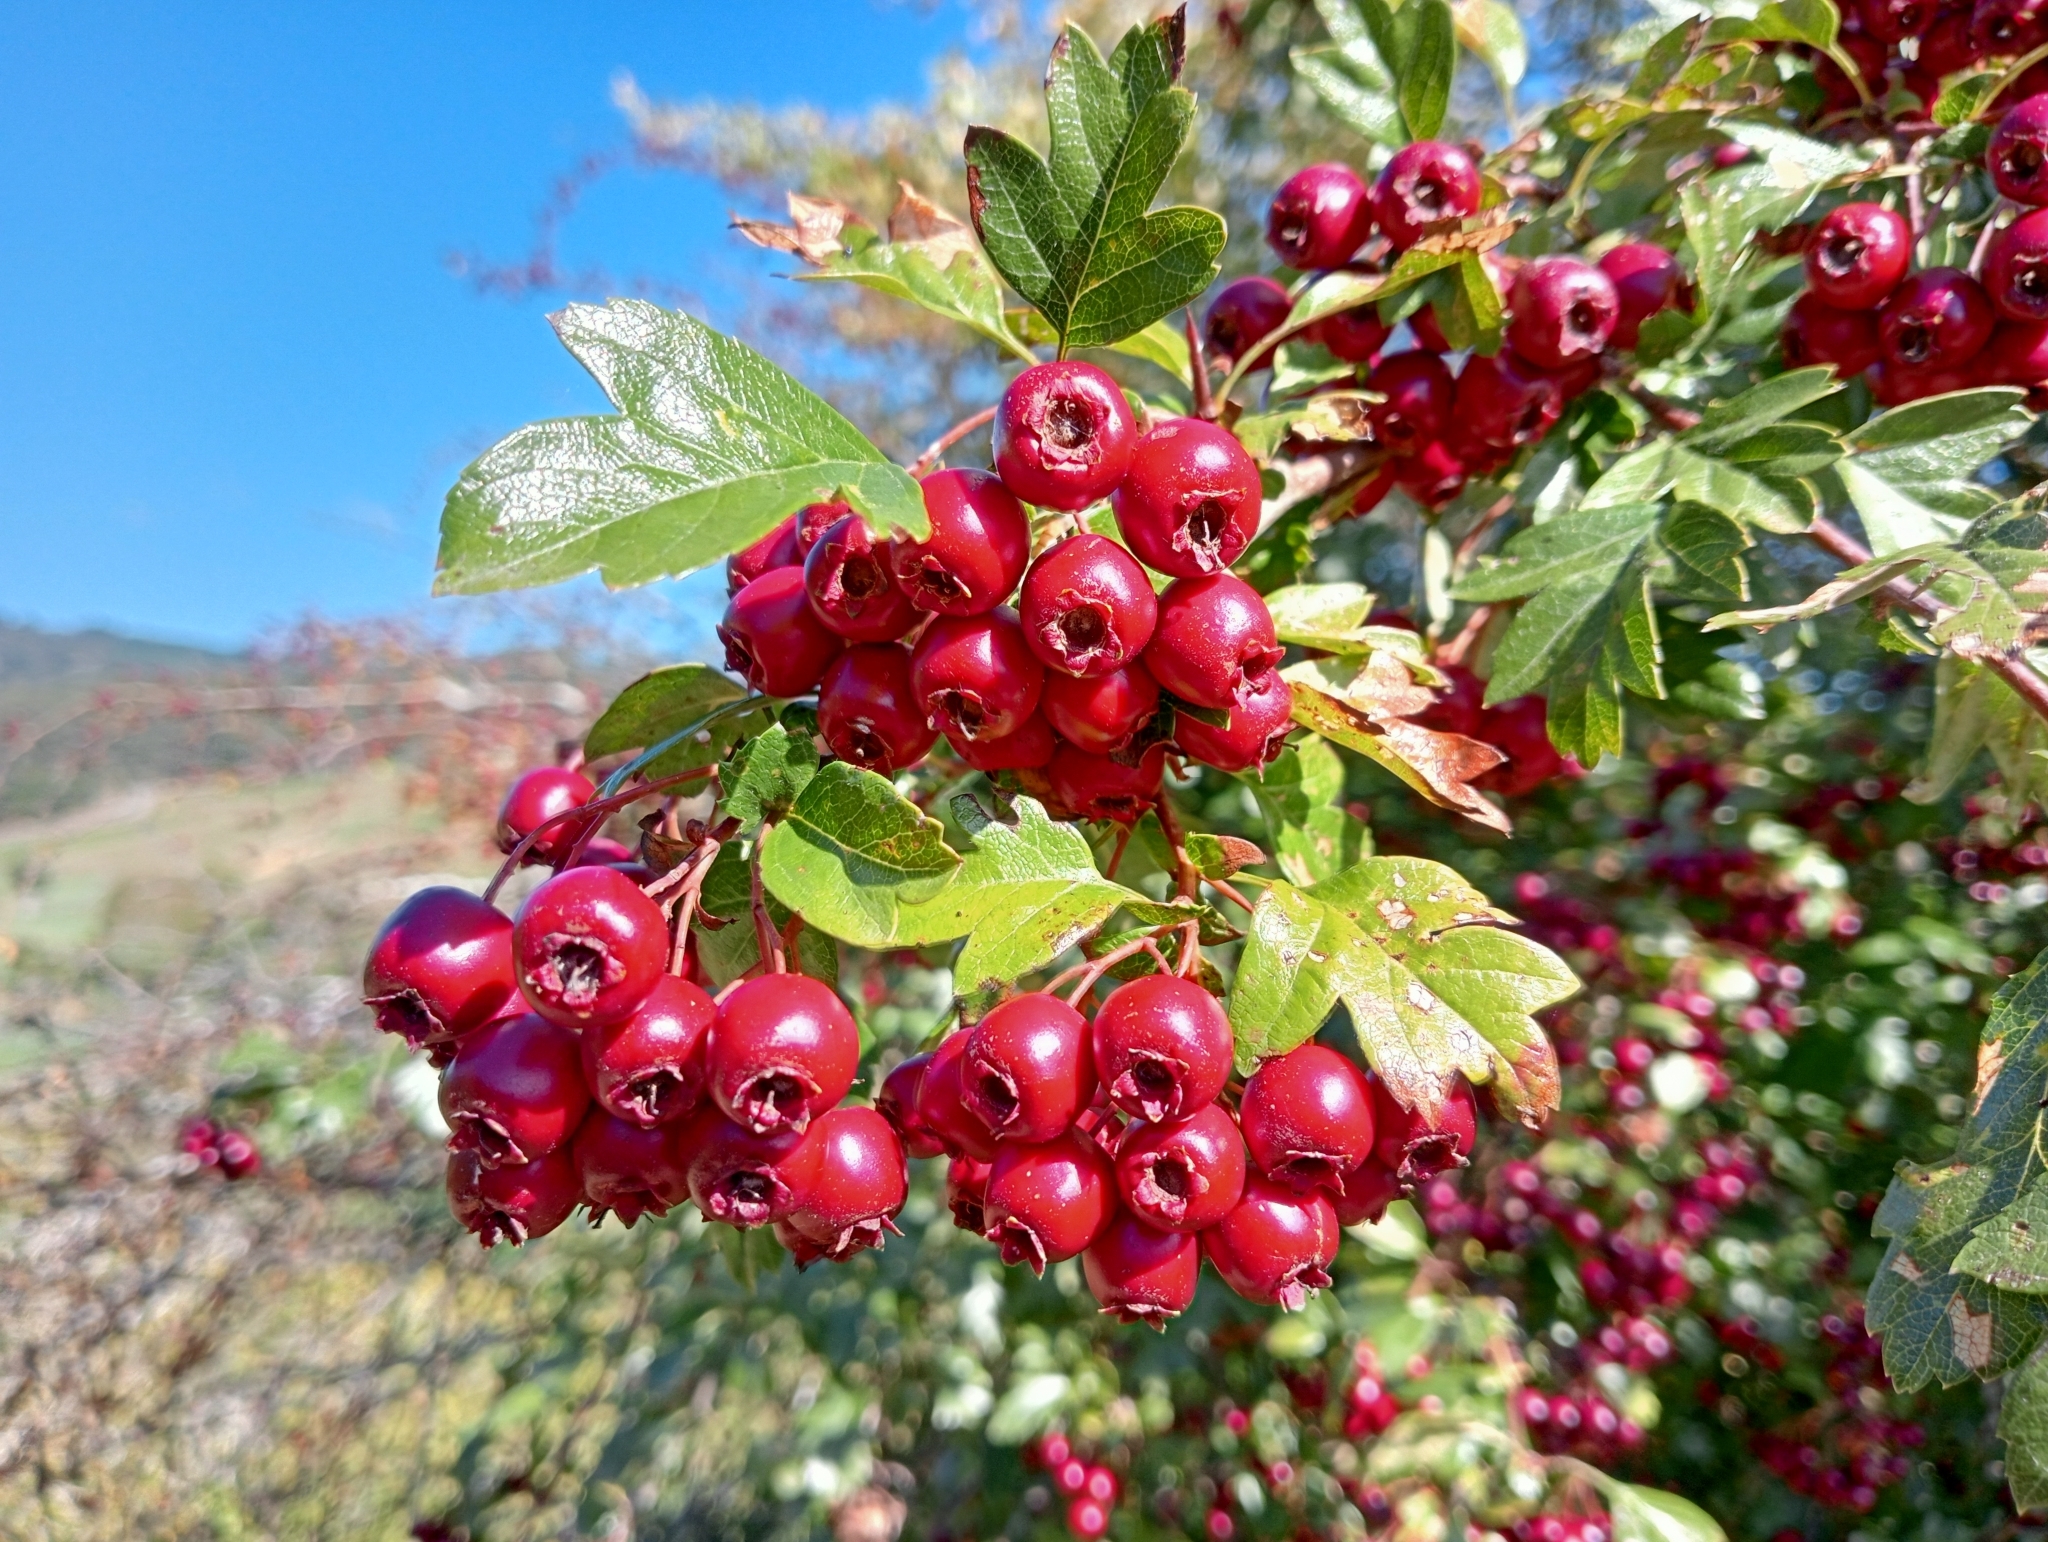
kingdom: Plantae
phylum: Tracheophyta
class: Magnoliopsida
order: Rosales
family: Rosaceae
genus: Crataegus
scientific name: Crataegus monogyna
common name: Hawthorn
